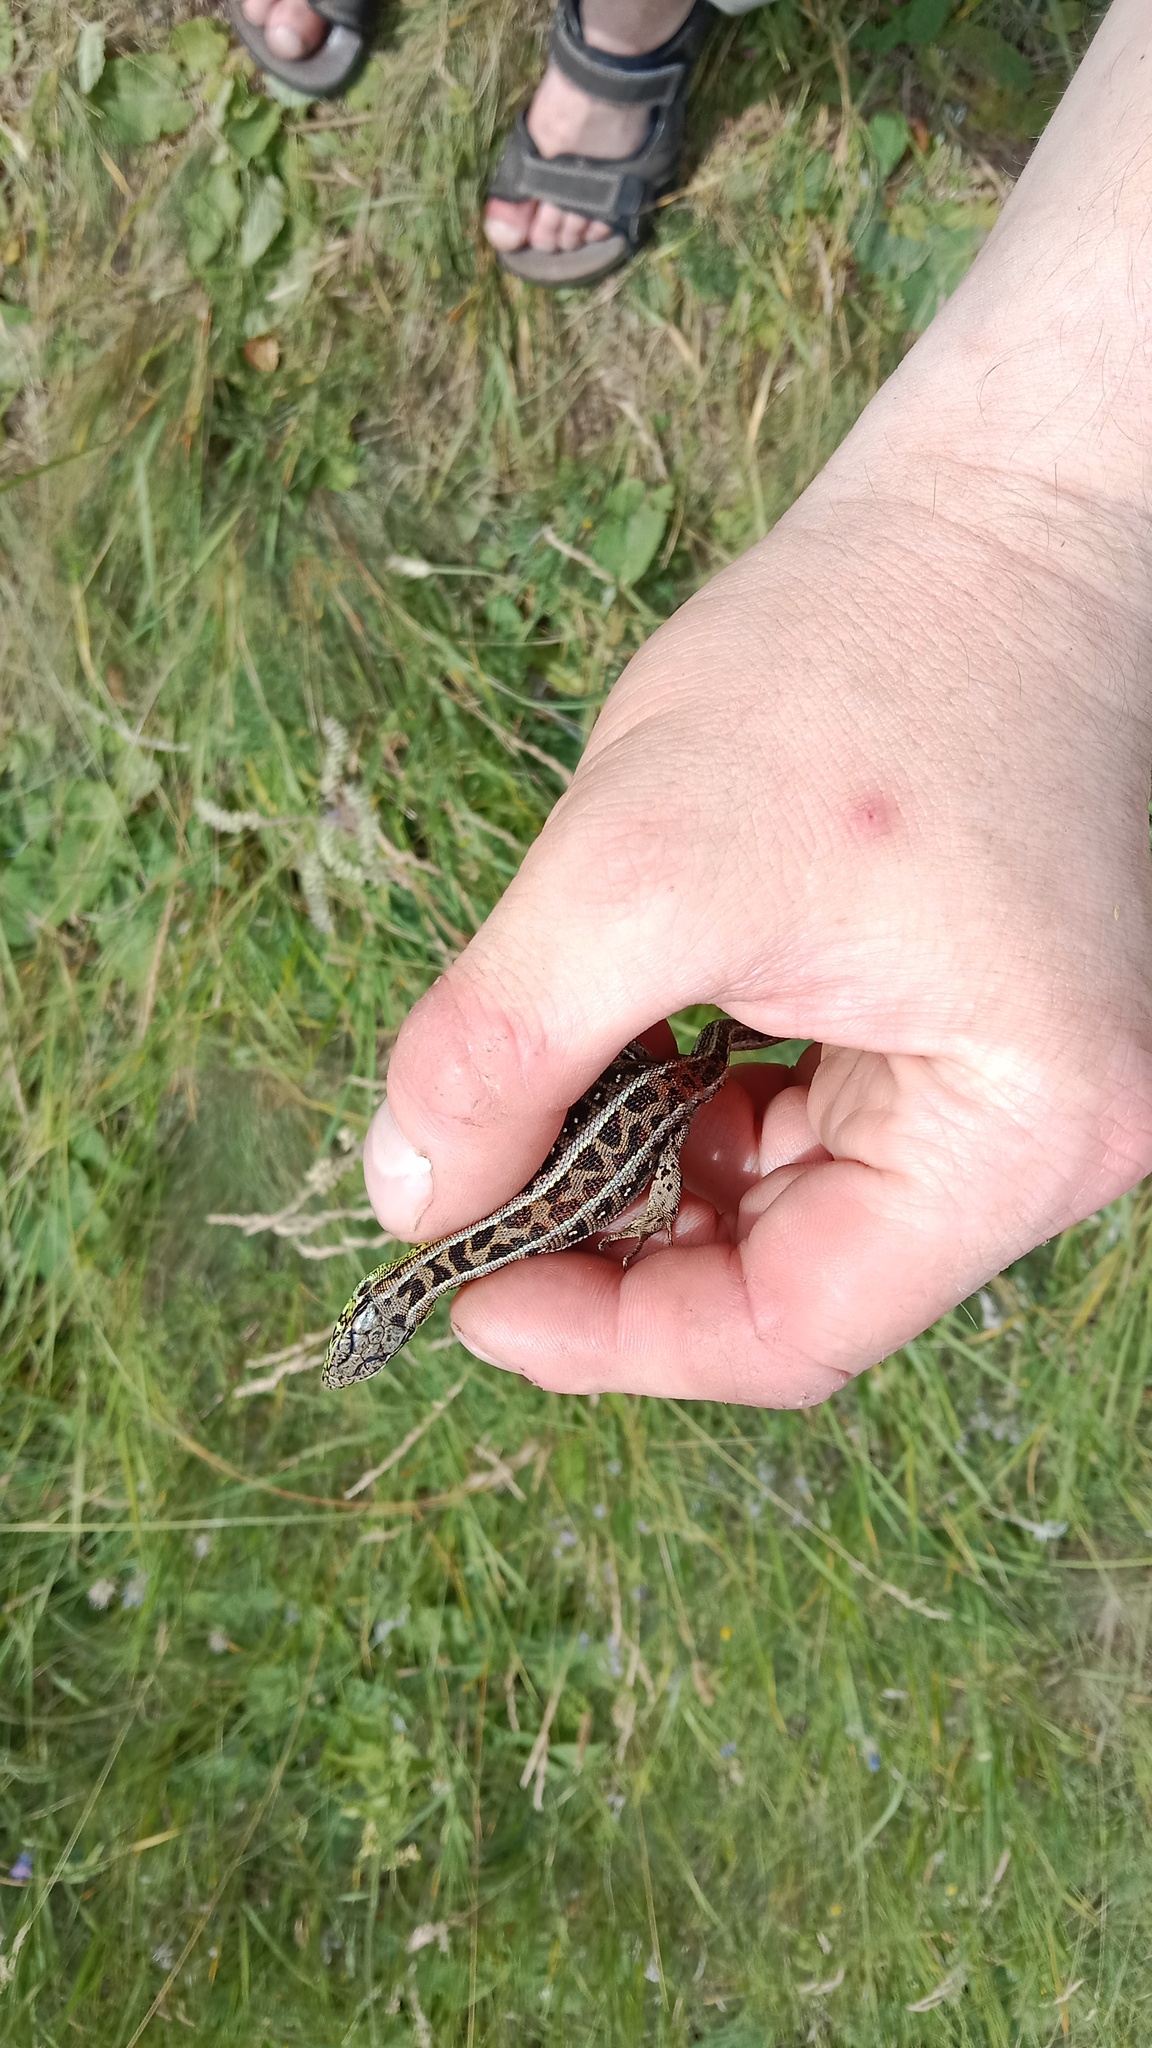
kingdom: Animalia
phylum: Chordata
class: Squamata
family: Lacertidae
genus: Lacerta
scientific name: Lacerta agilis
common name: Sand lizard
